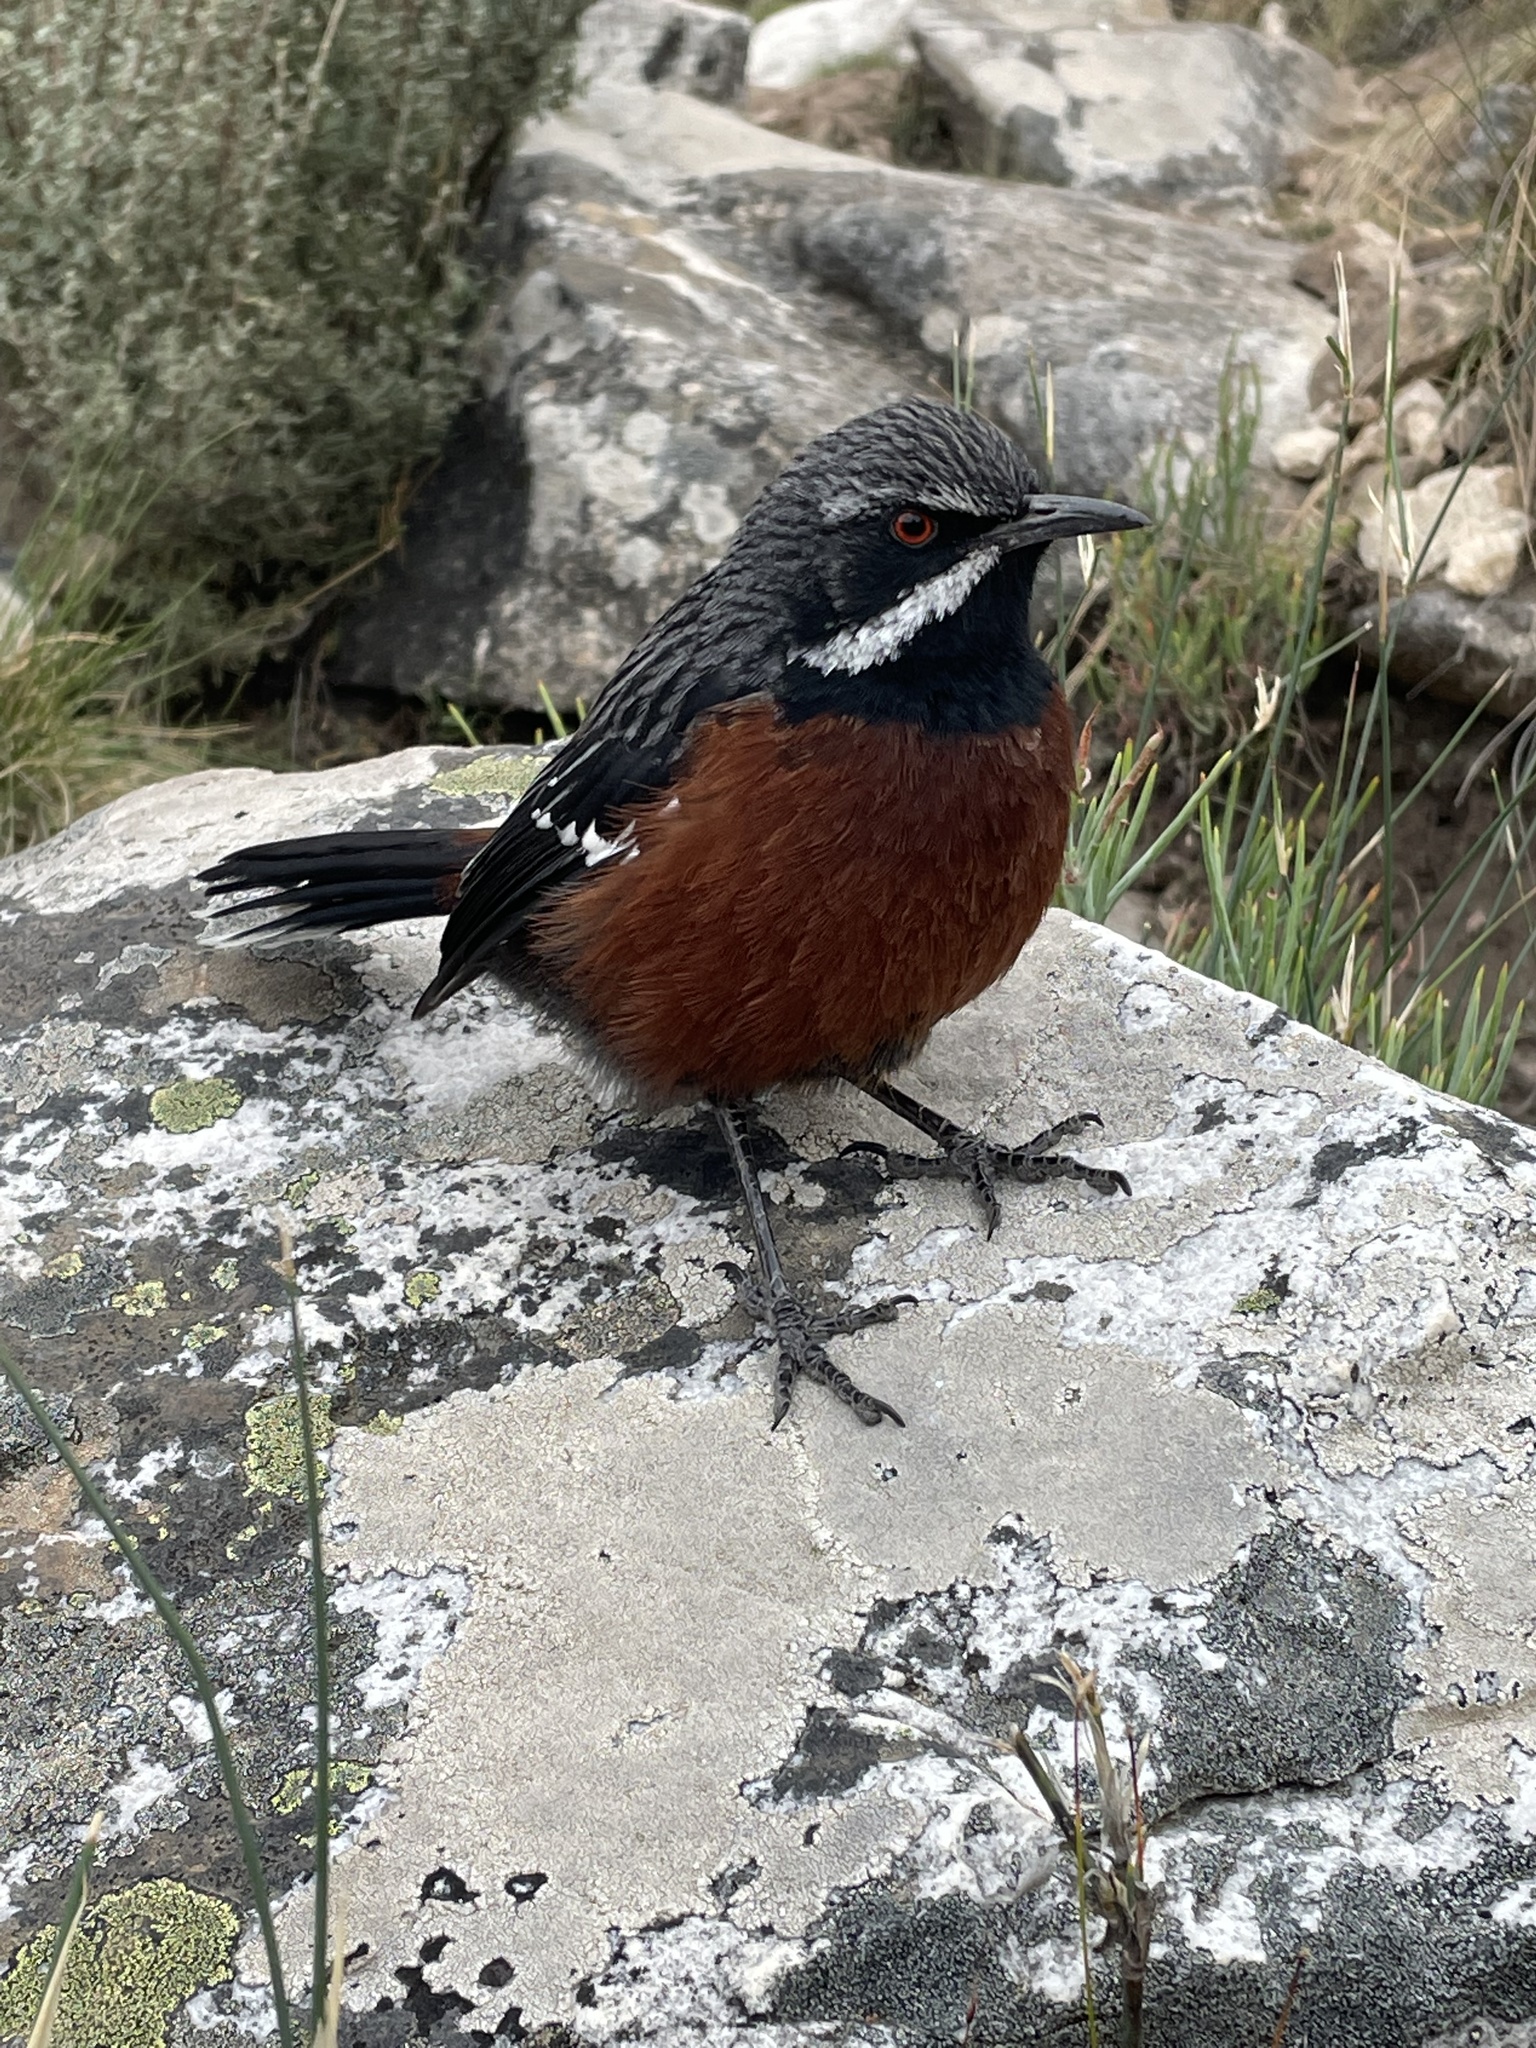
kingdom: Animalia
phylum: Chordata
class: Aves
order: Passeriformes
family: Chaetopidae
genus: Chaetops
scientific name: Chaetops frenatus
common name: Cape rockjumper
